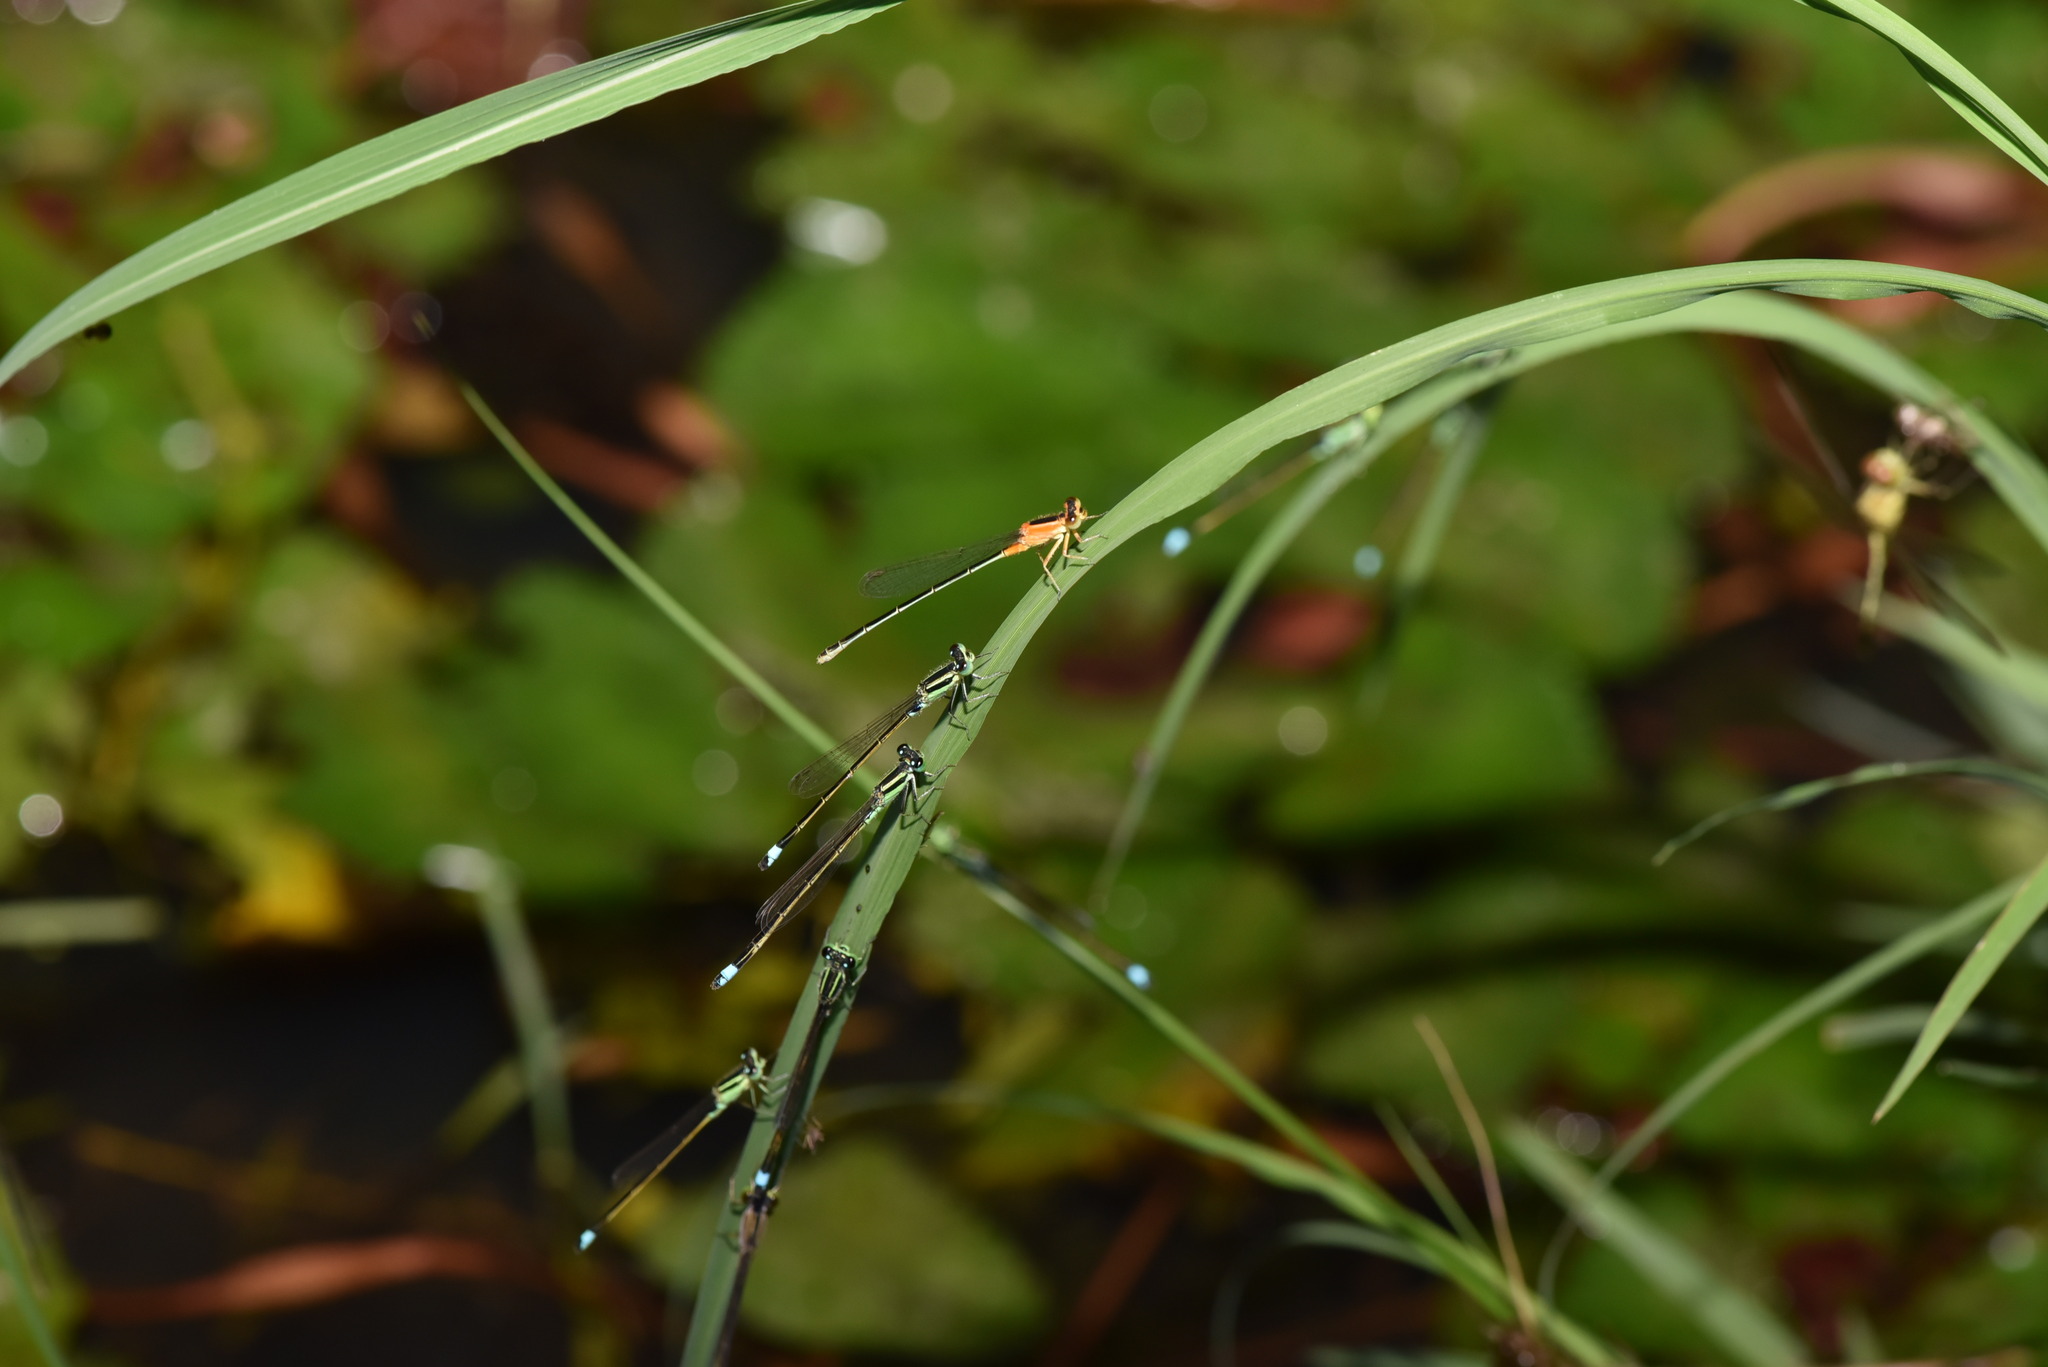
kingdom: Animalia
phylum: Arthropoda
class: Insecta
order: Odonata
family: Coenagrionidae
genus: Ischnura
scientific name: Ischnura senegalensis
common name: Tropical bluetail
